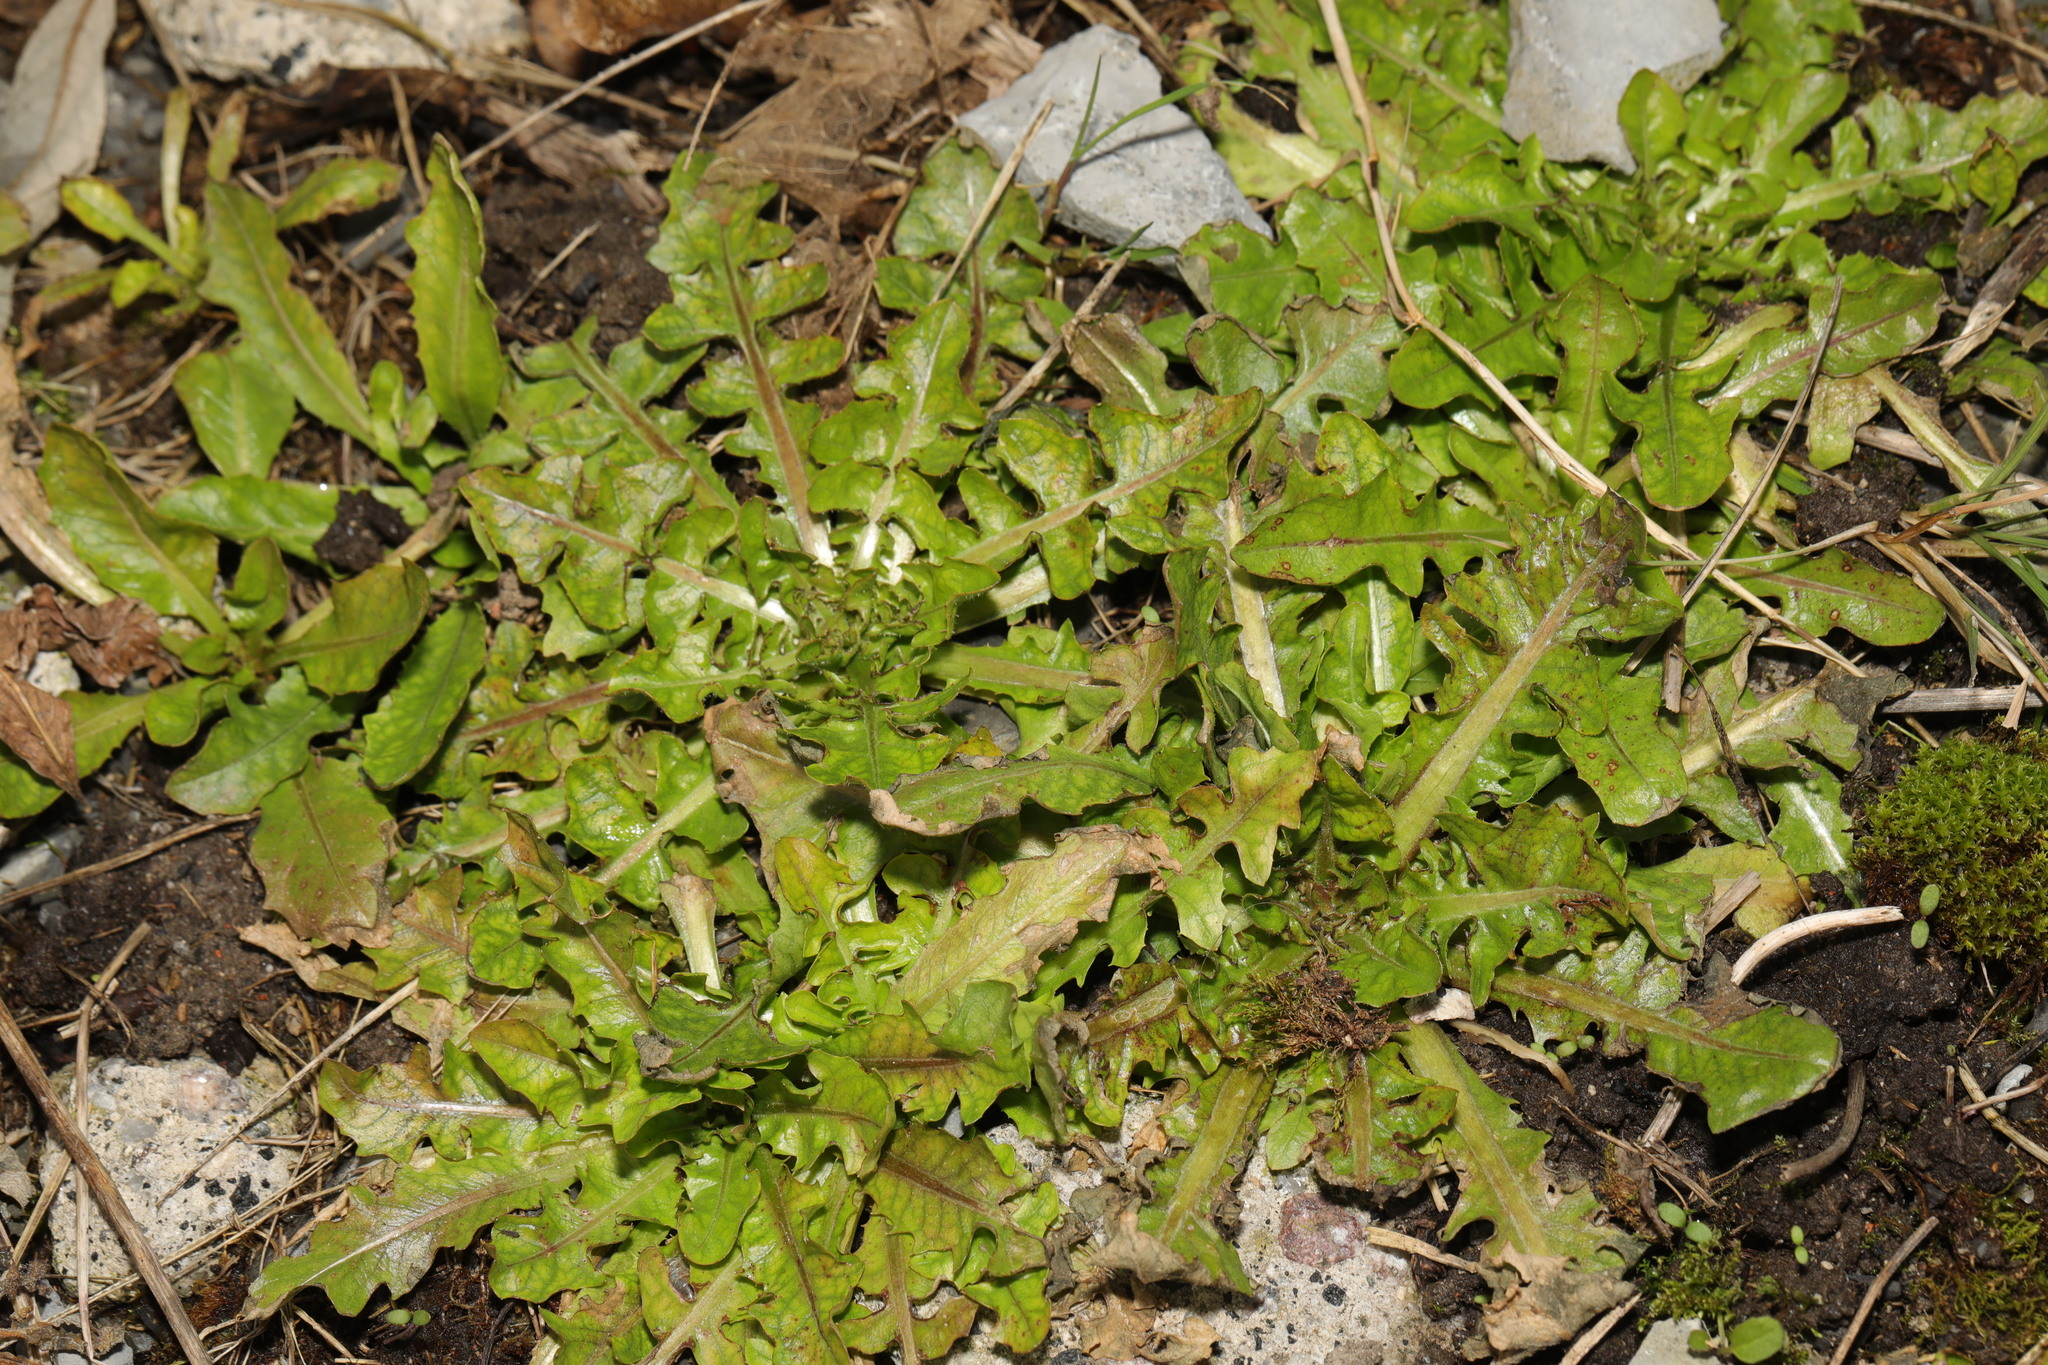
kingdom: Plantae
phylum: Tracheophyta
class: Magnoliopsida
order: Asterales
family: Asteraceae
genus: Taraxacum
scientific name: Taraxacum officinale
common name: Common dandelion
